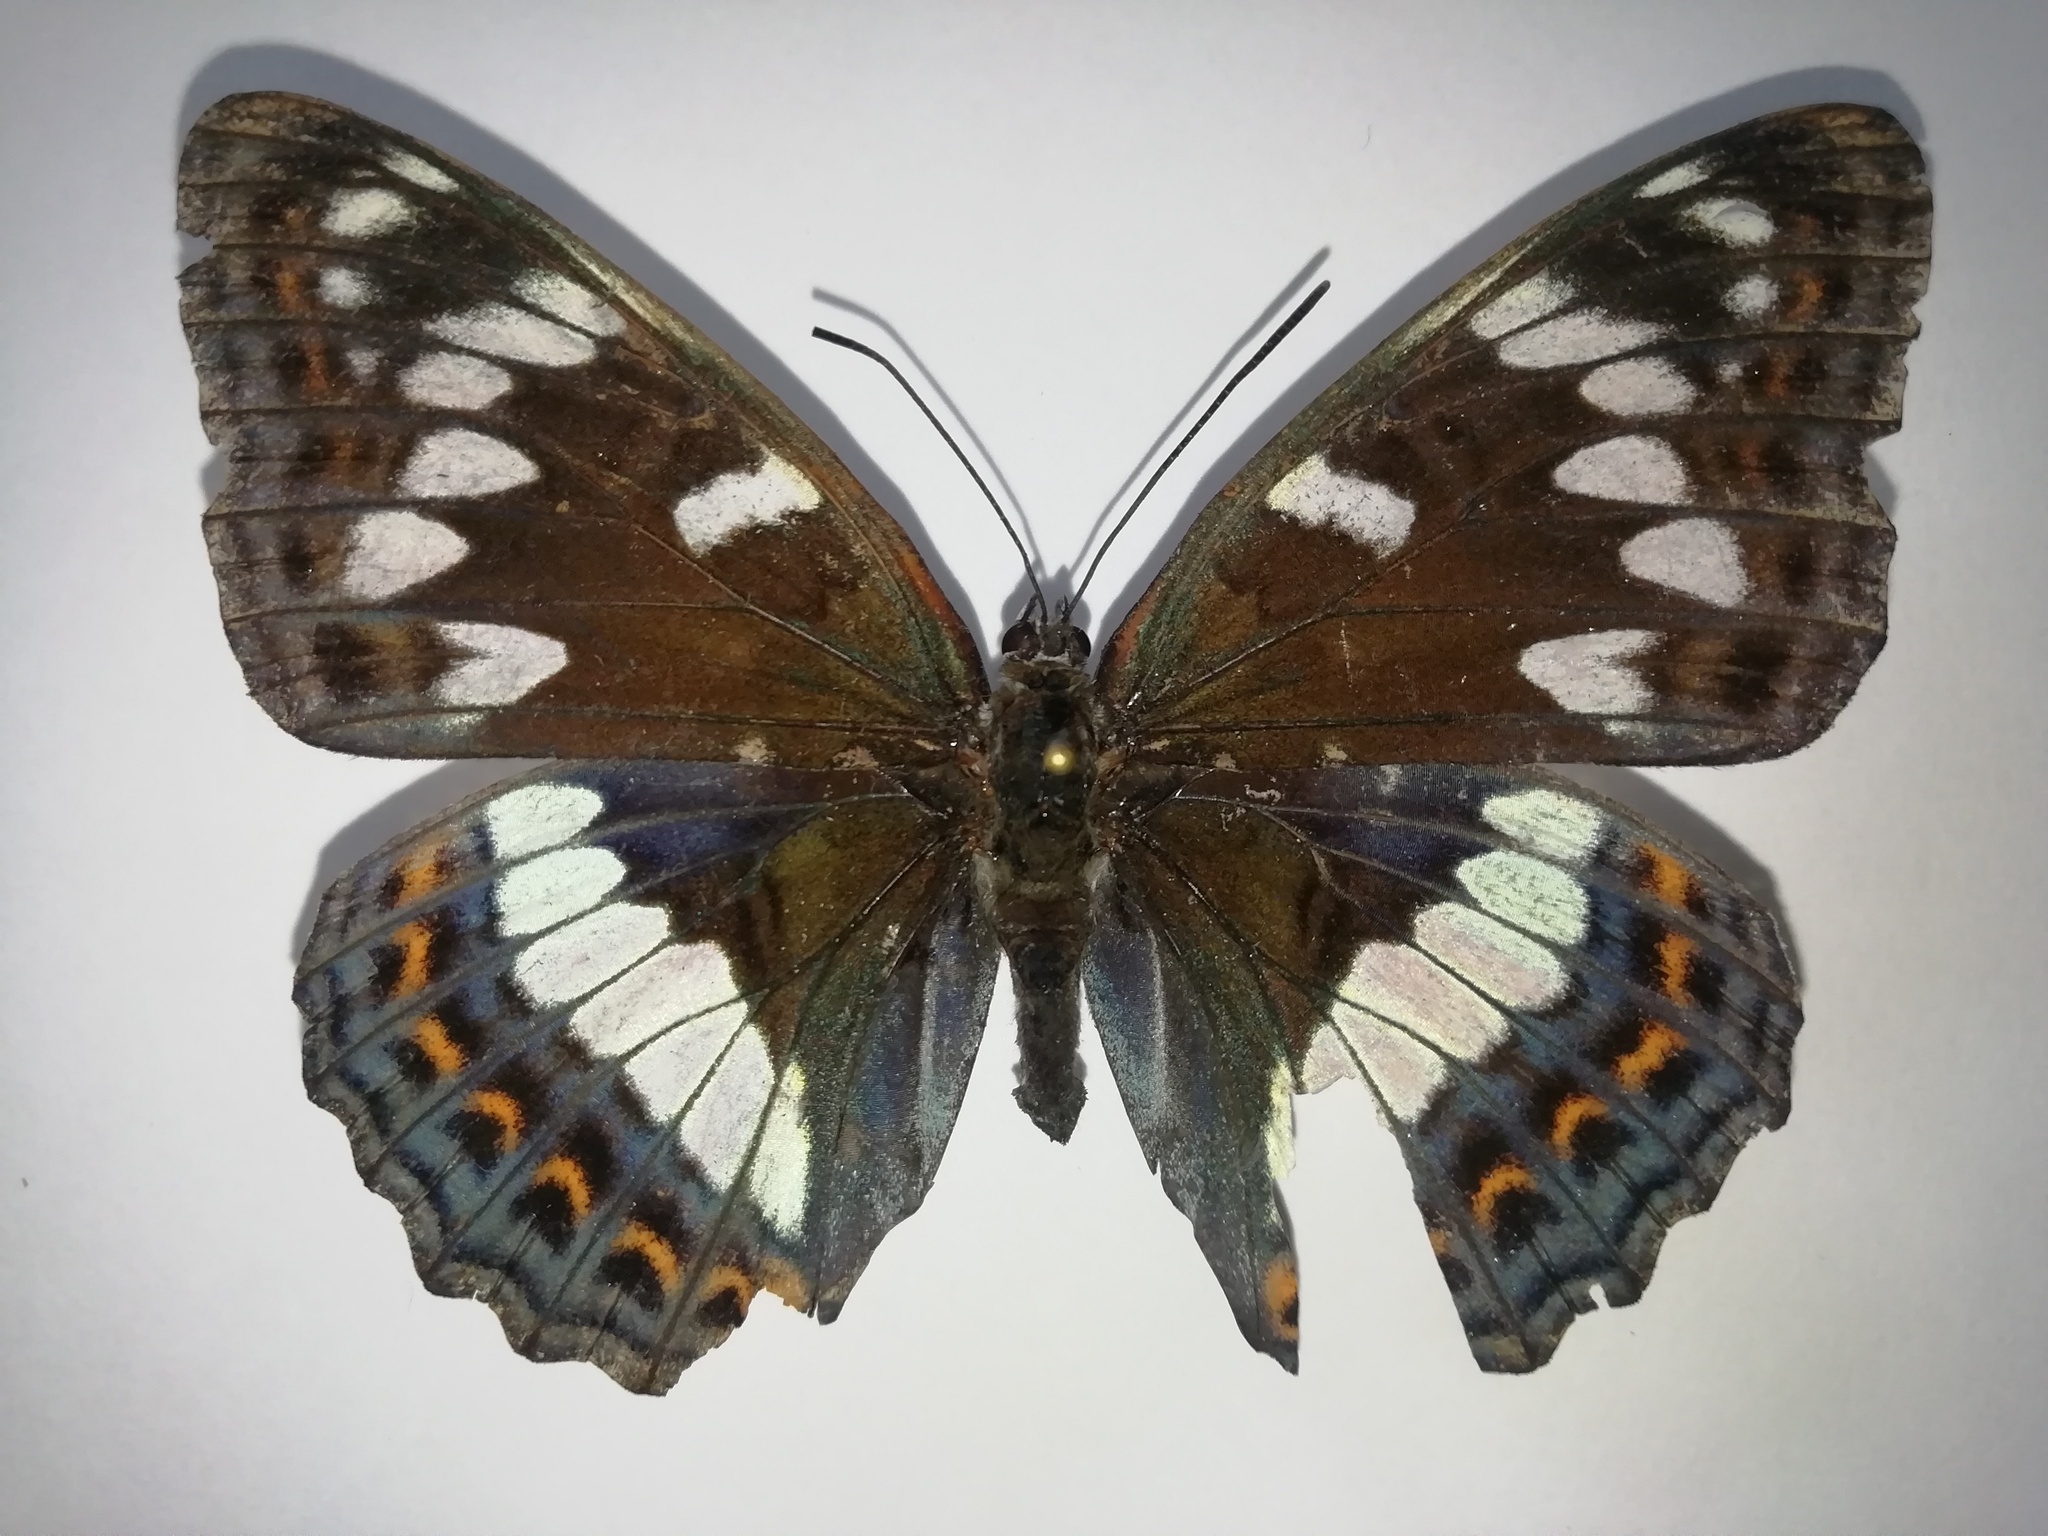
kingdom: Animalia
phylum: Arthropoda
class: Insecta
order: Lepidoptera
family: Nymphalidae
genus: Limenitis
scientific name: Limenitis populi
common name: Poplar admiral
